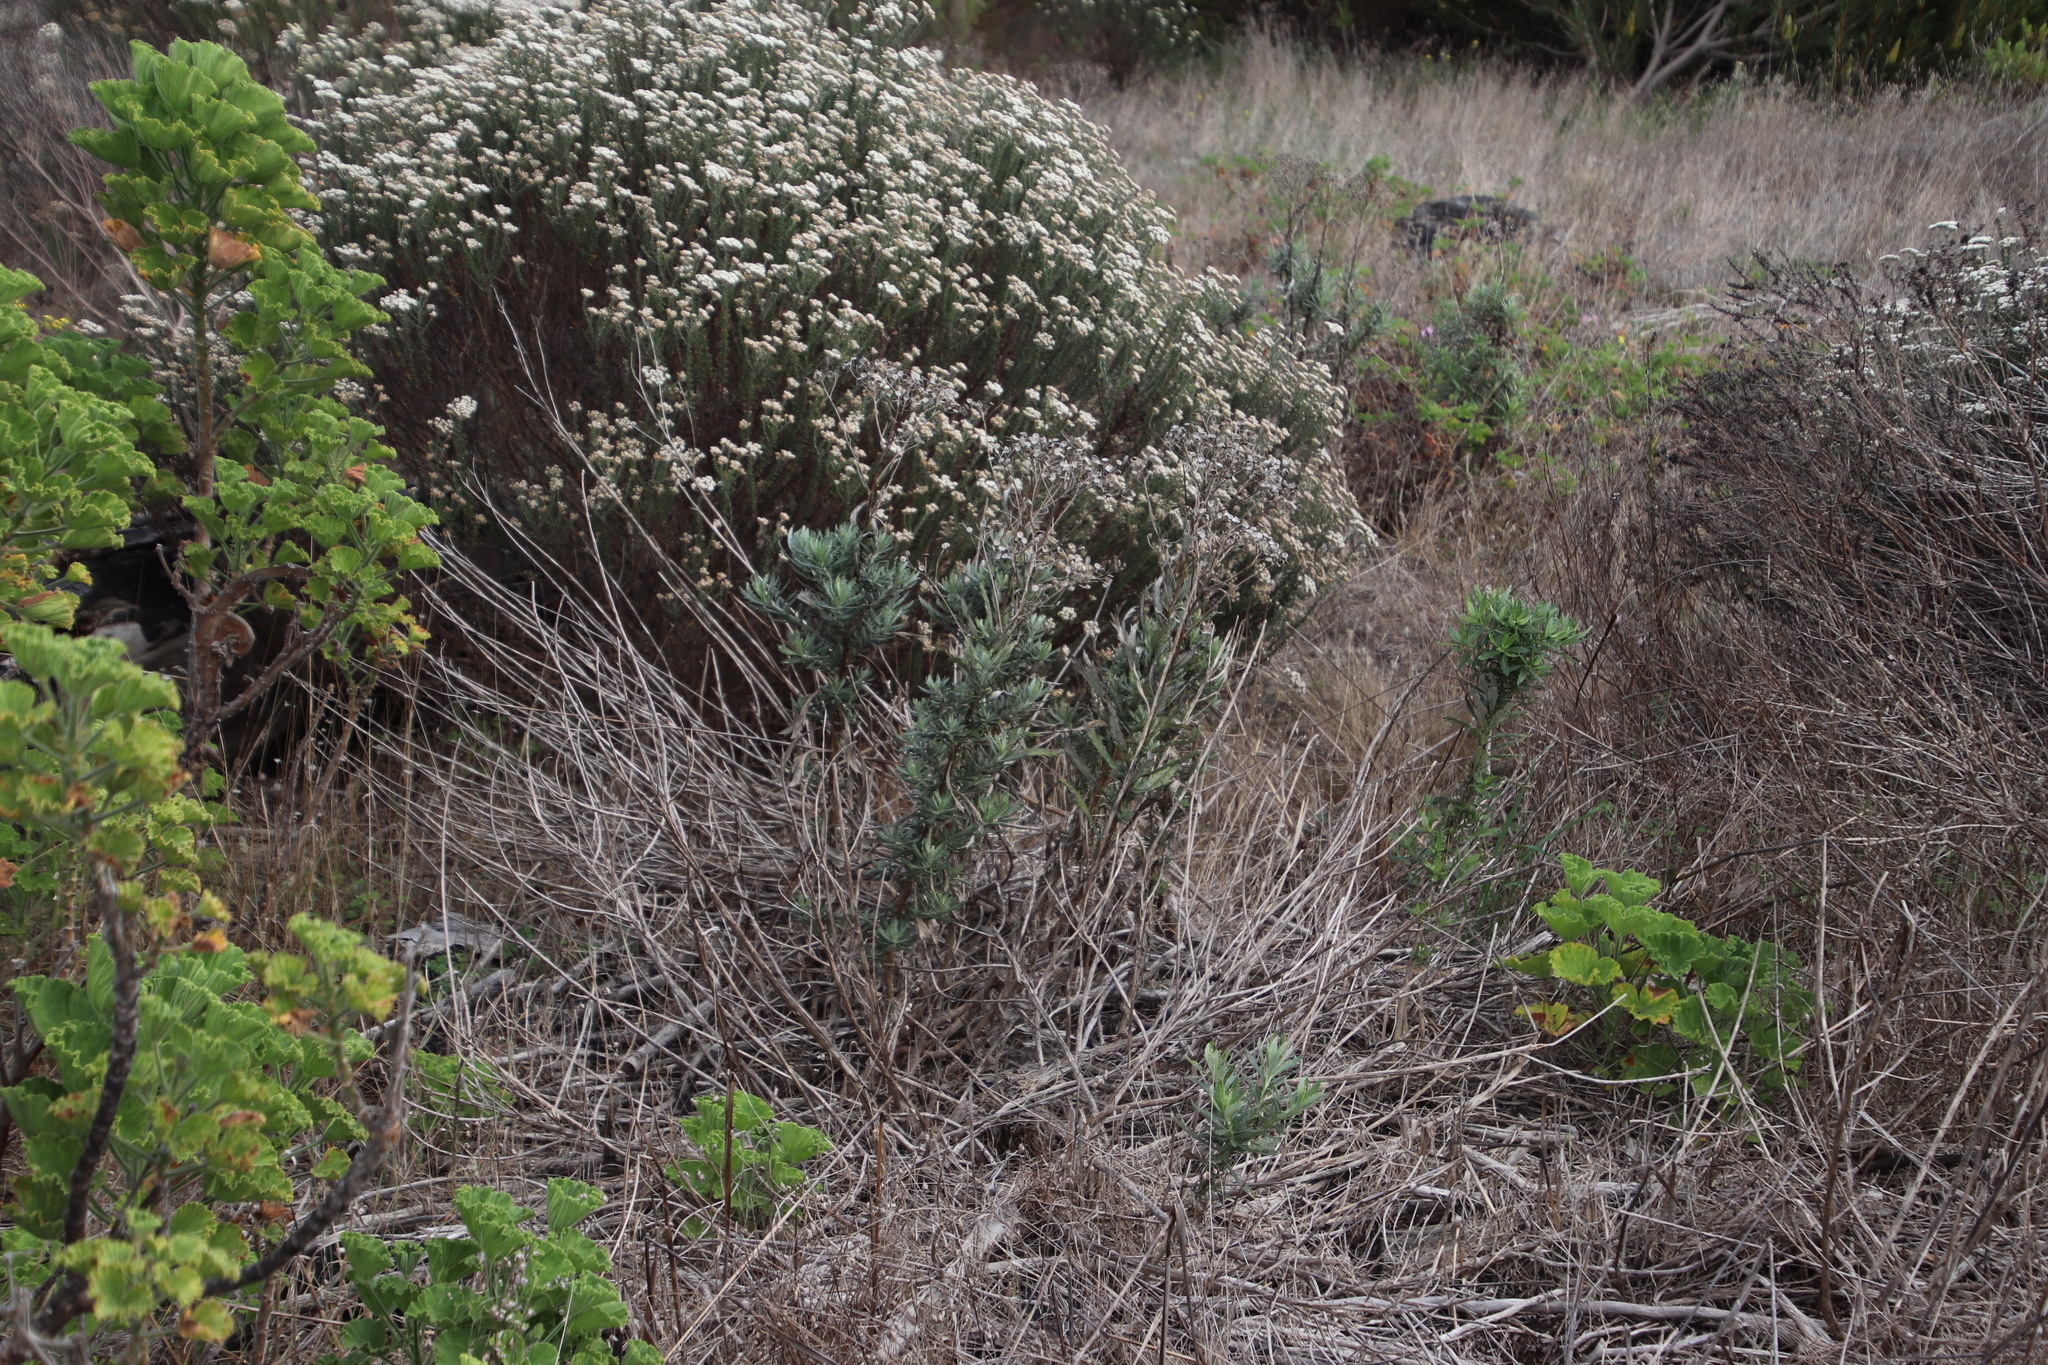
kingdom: Plantae
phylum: Tracheophyta
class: Magnoliopsida
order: Asterales
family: Asteraceae
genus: Senecio
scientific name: Senecio pterophorus
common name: Shoddy ragwort
